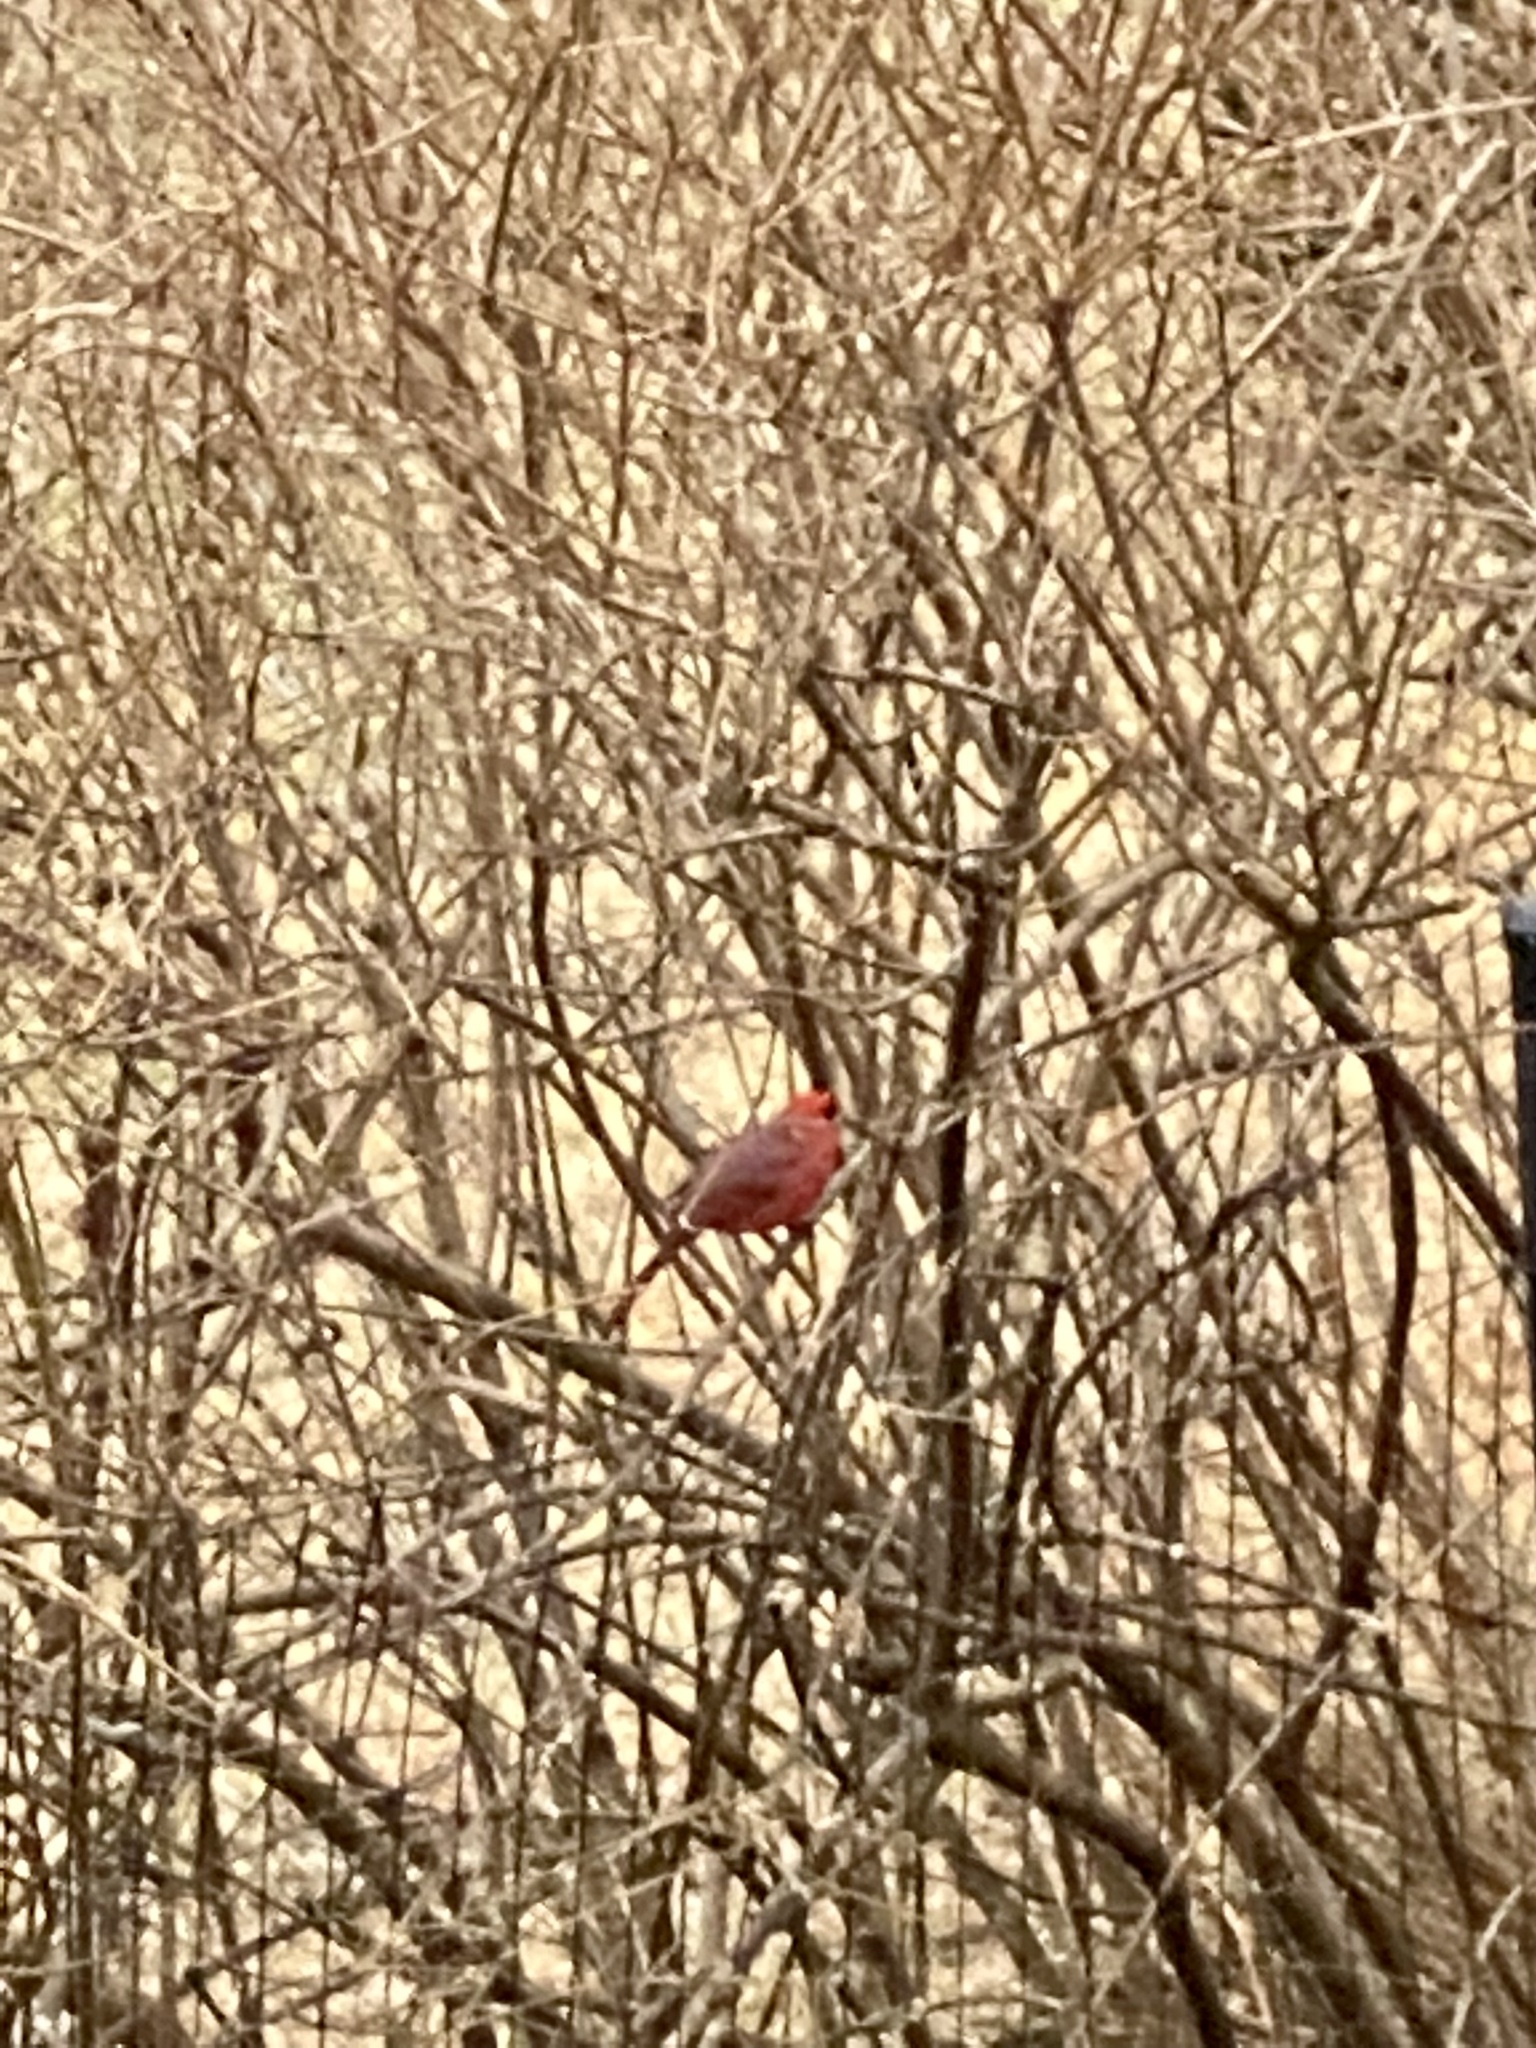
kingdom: Animalia
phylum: Chordata
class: Aves
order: Passeriformes
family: Cardinalidae
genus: Cardinalis
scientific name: Cardinalis cardinalis
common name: Northern cardinal
